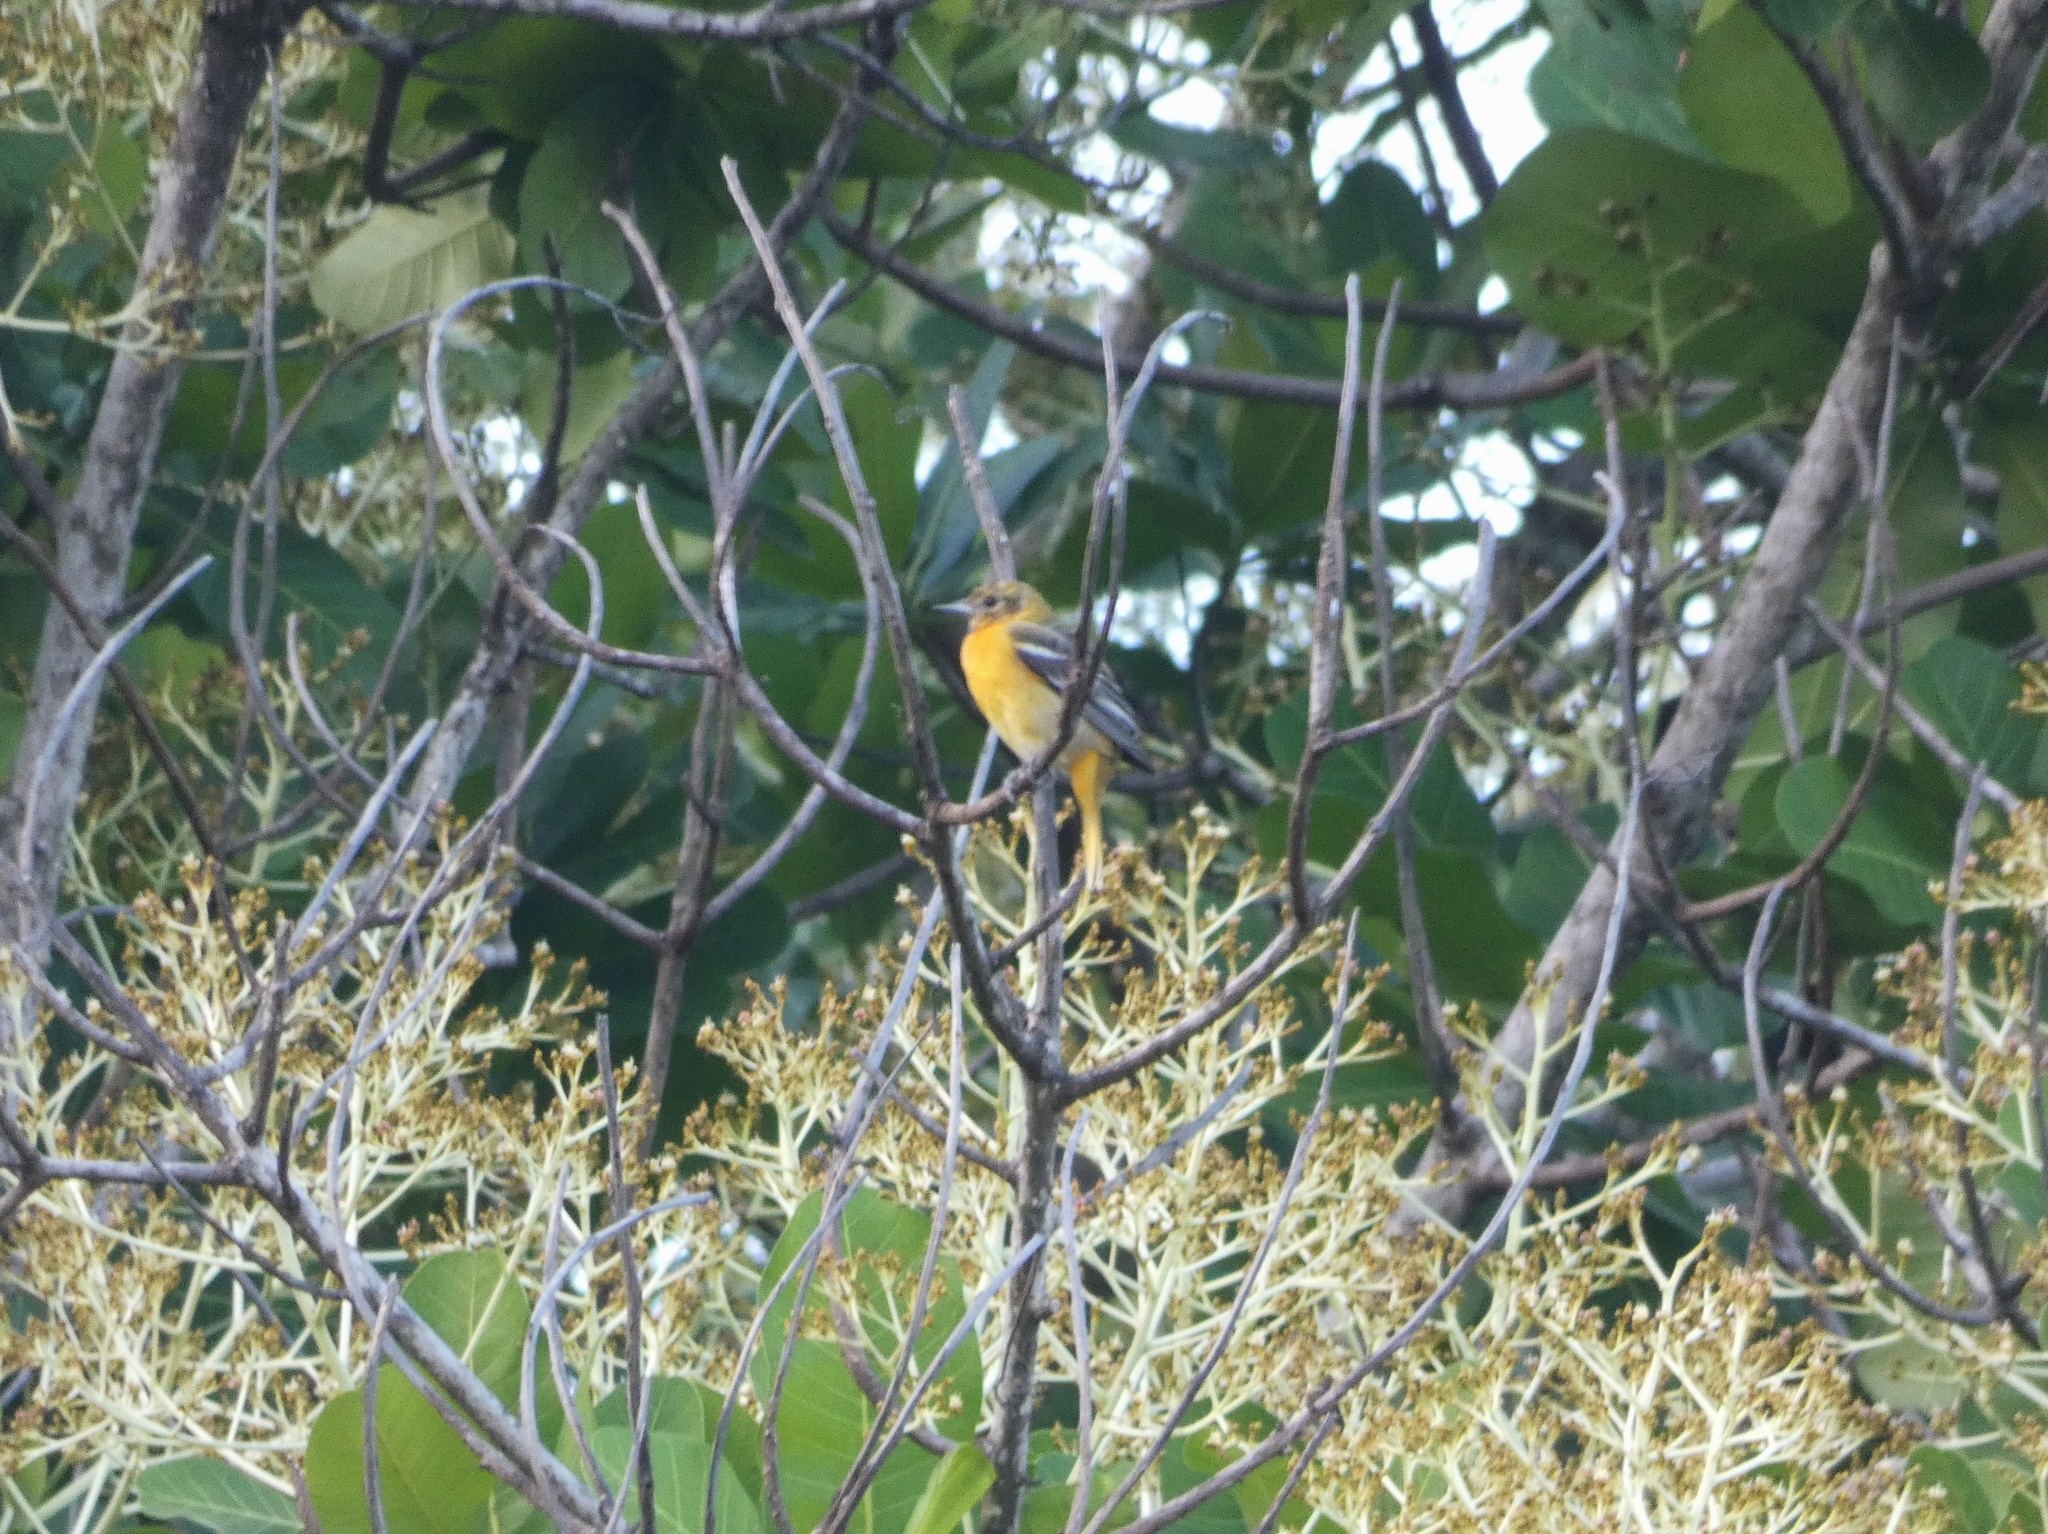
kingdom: Animalia
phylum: Chordata
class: Aves
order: Passeriformes
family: Icteridae
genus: Icterus
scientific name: Icterus galbula
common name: Baltimore oriole
